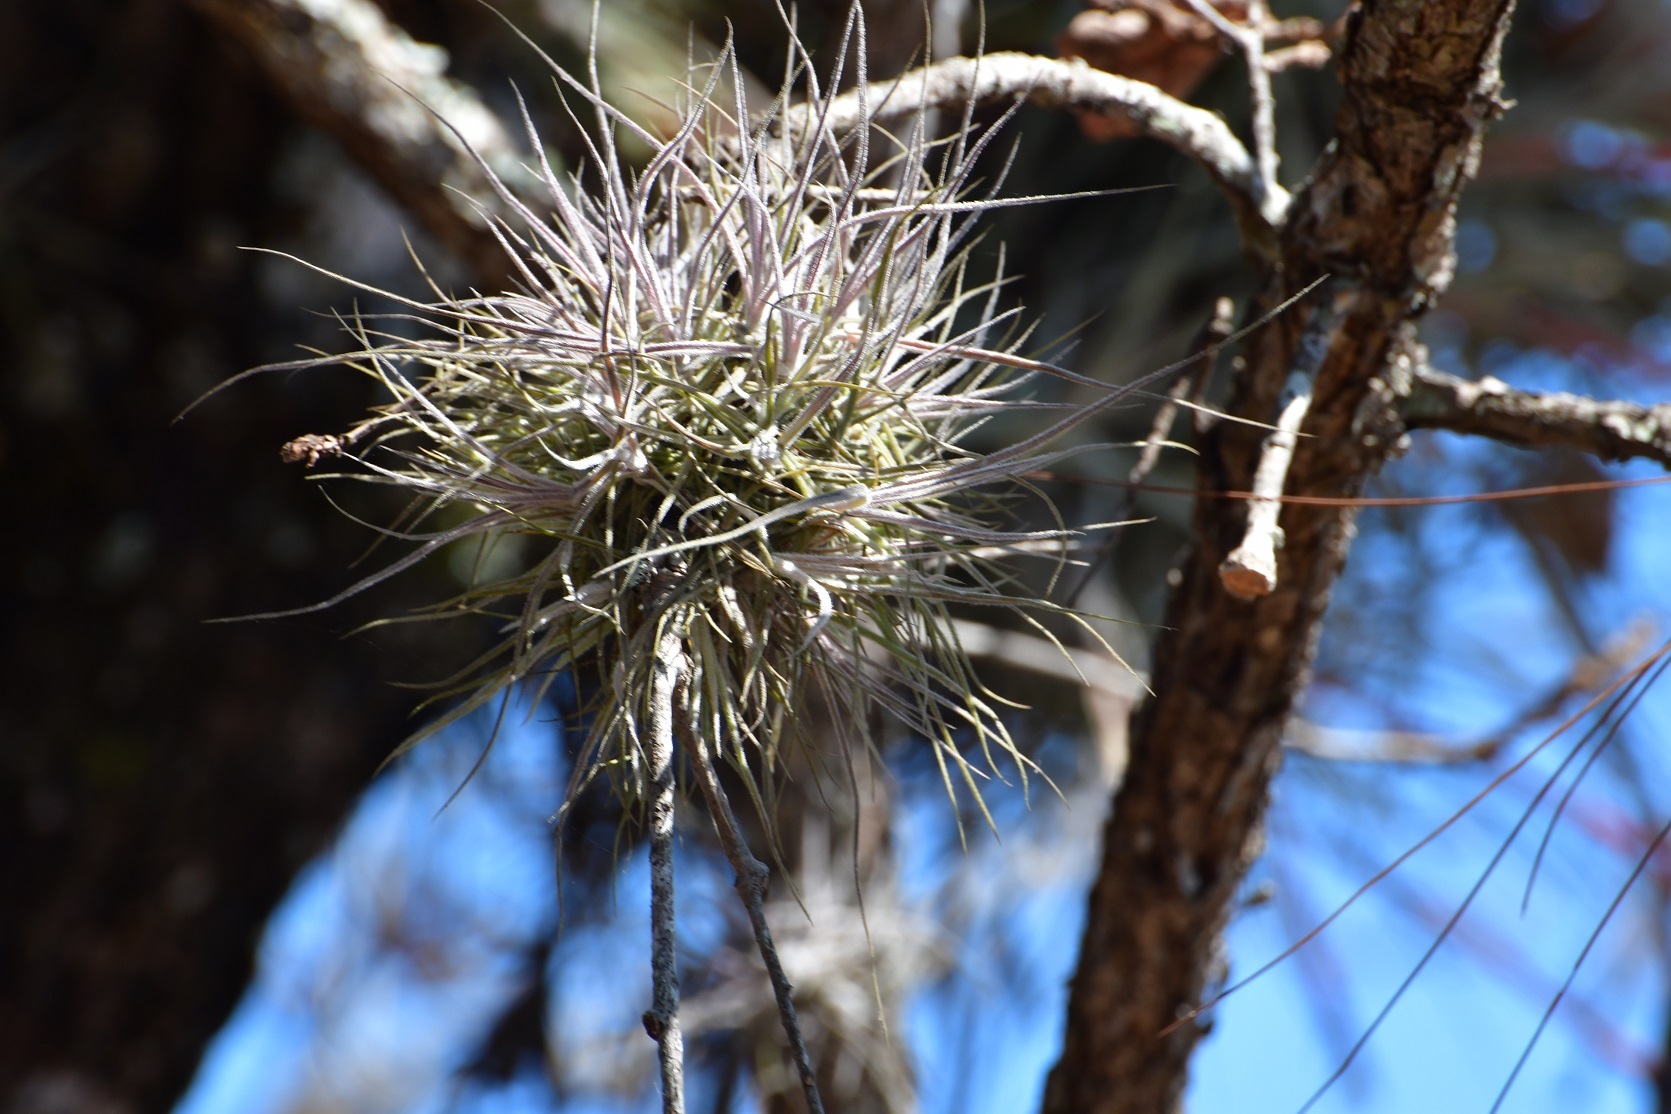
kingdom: Plantae
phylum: Tracheophyta
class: Liliopsida
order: Poales
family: Bromeliaceae
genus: Tillandsia
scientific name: Tillandsia schiedeana
